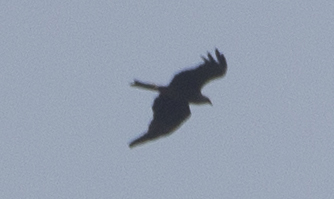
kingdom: Animalia
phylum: Chordata
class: Aves
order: Accipitriformes
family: Accipitridae
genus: Milvus
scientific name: Milvus migrans
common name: Black kite
